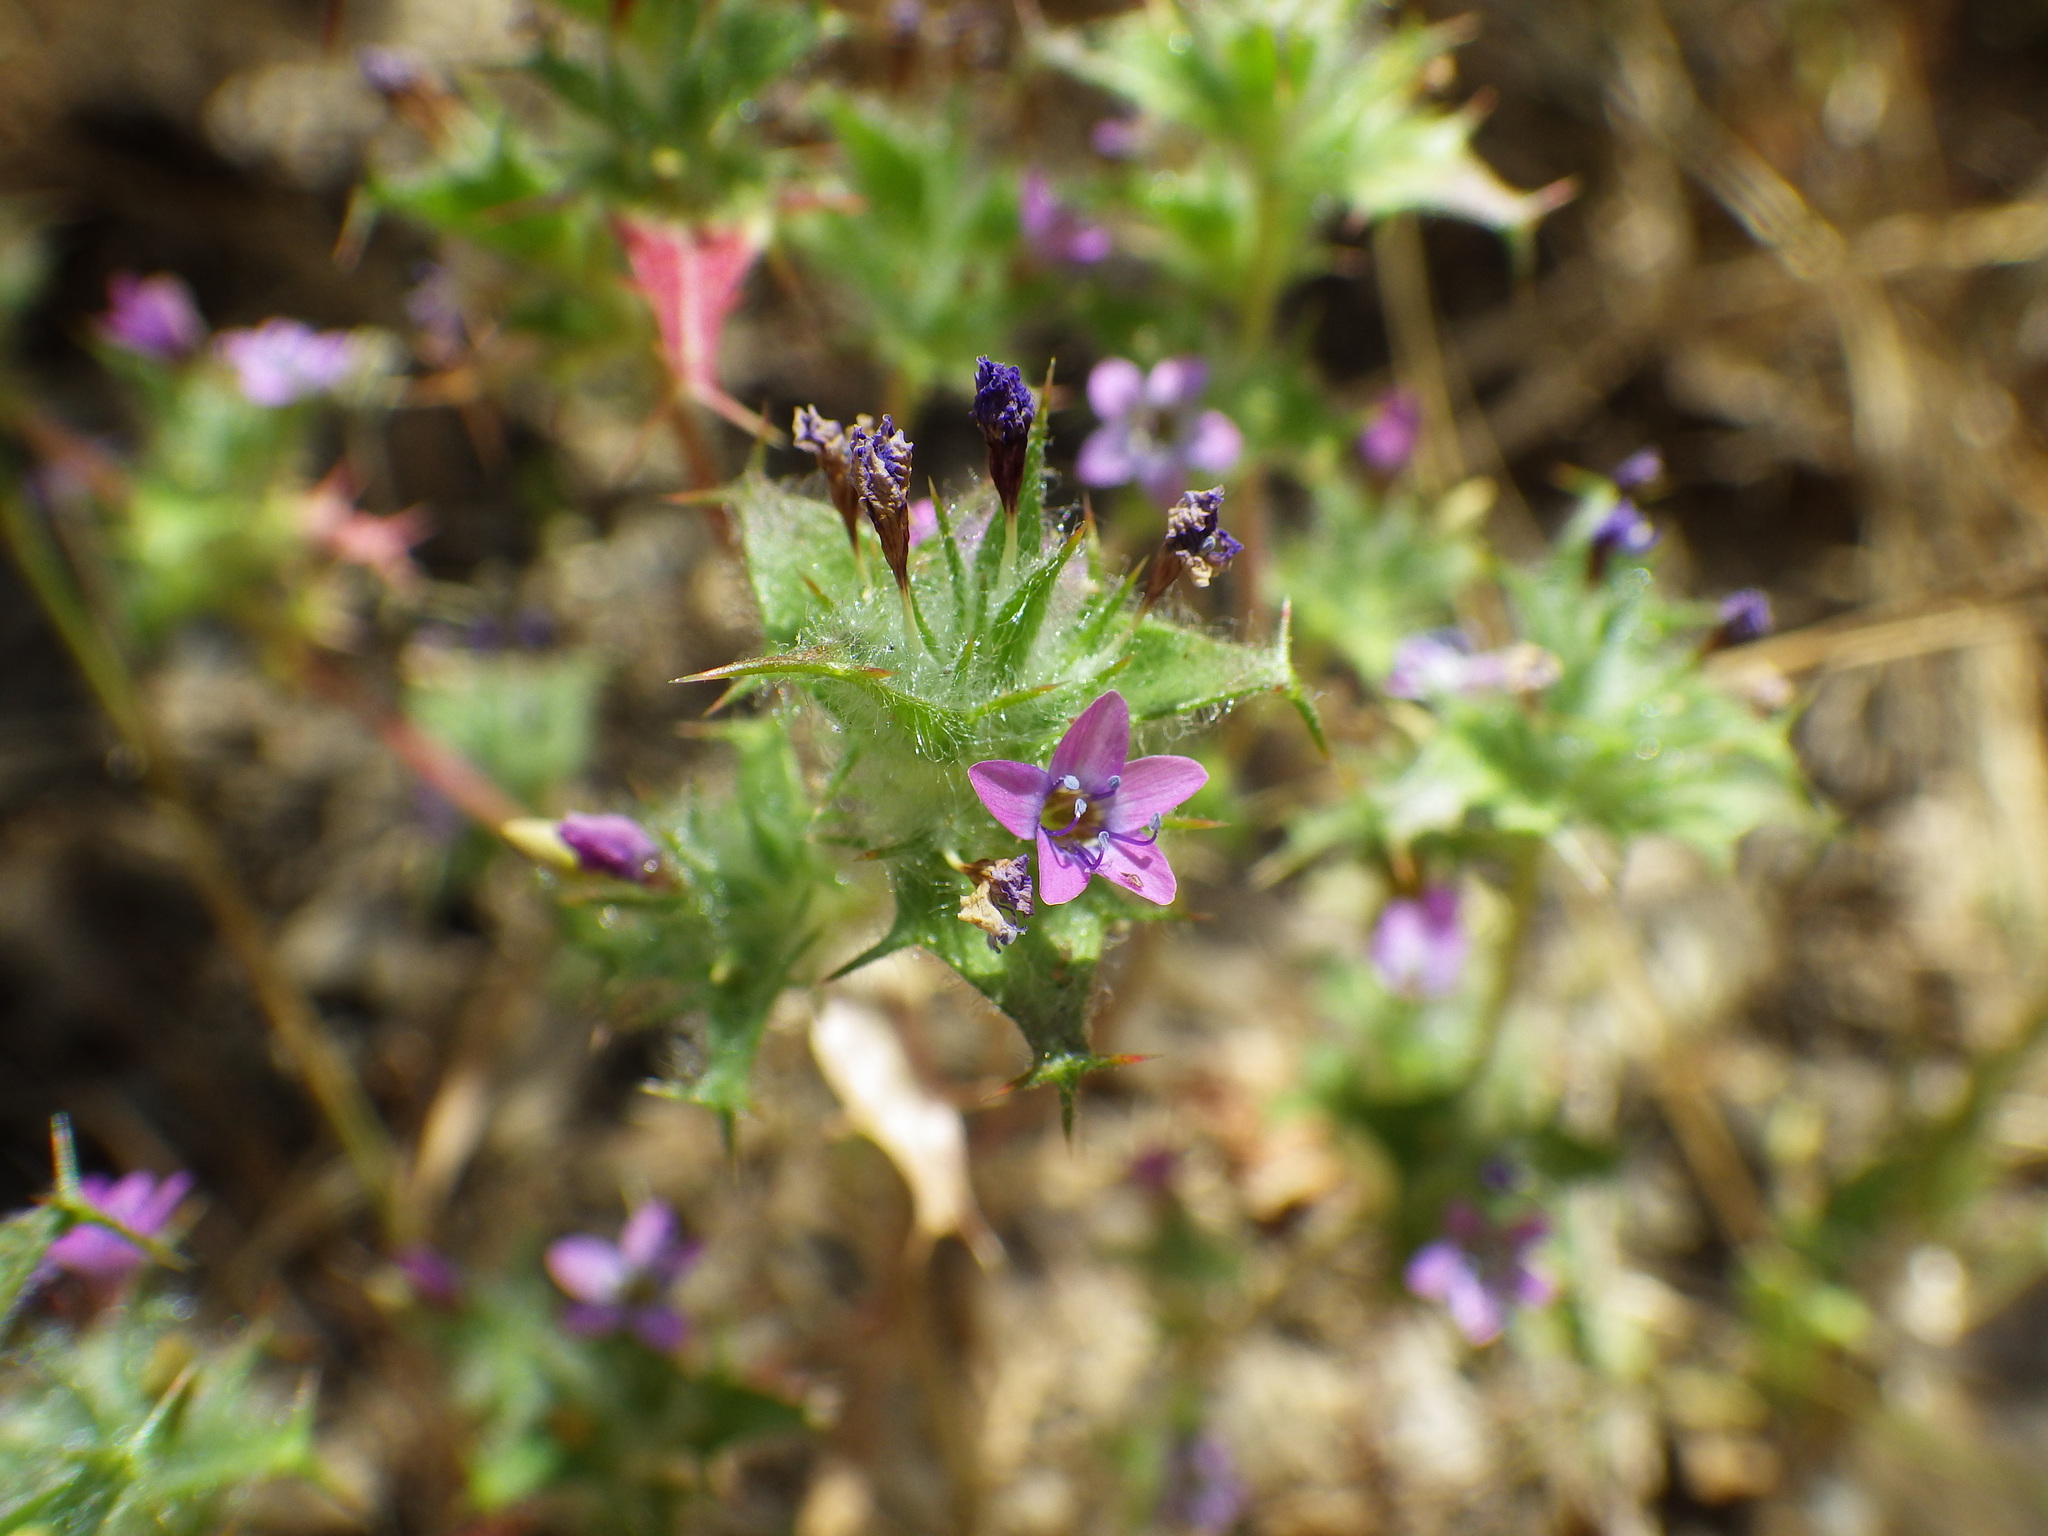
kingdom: Plantae
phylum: Tracheophyta
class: Magnoliopsida
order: Ericales
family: Polemoniaceae
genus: Navarretia
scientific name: Navarretia hamata
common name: Hooked navarretia
